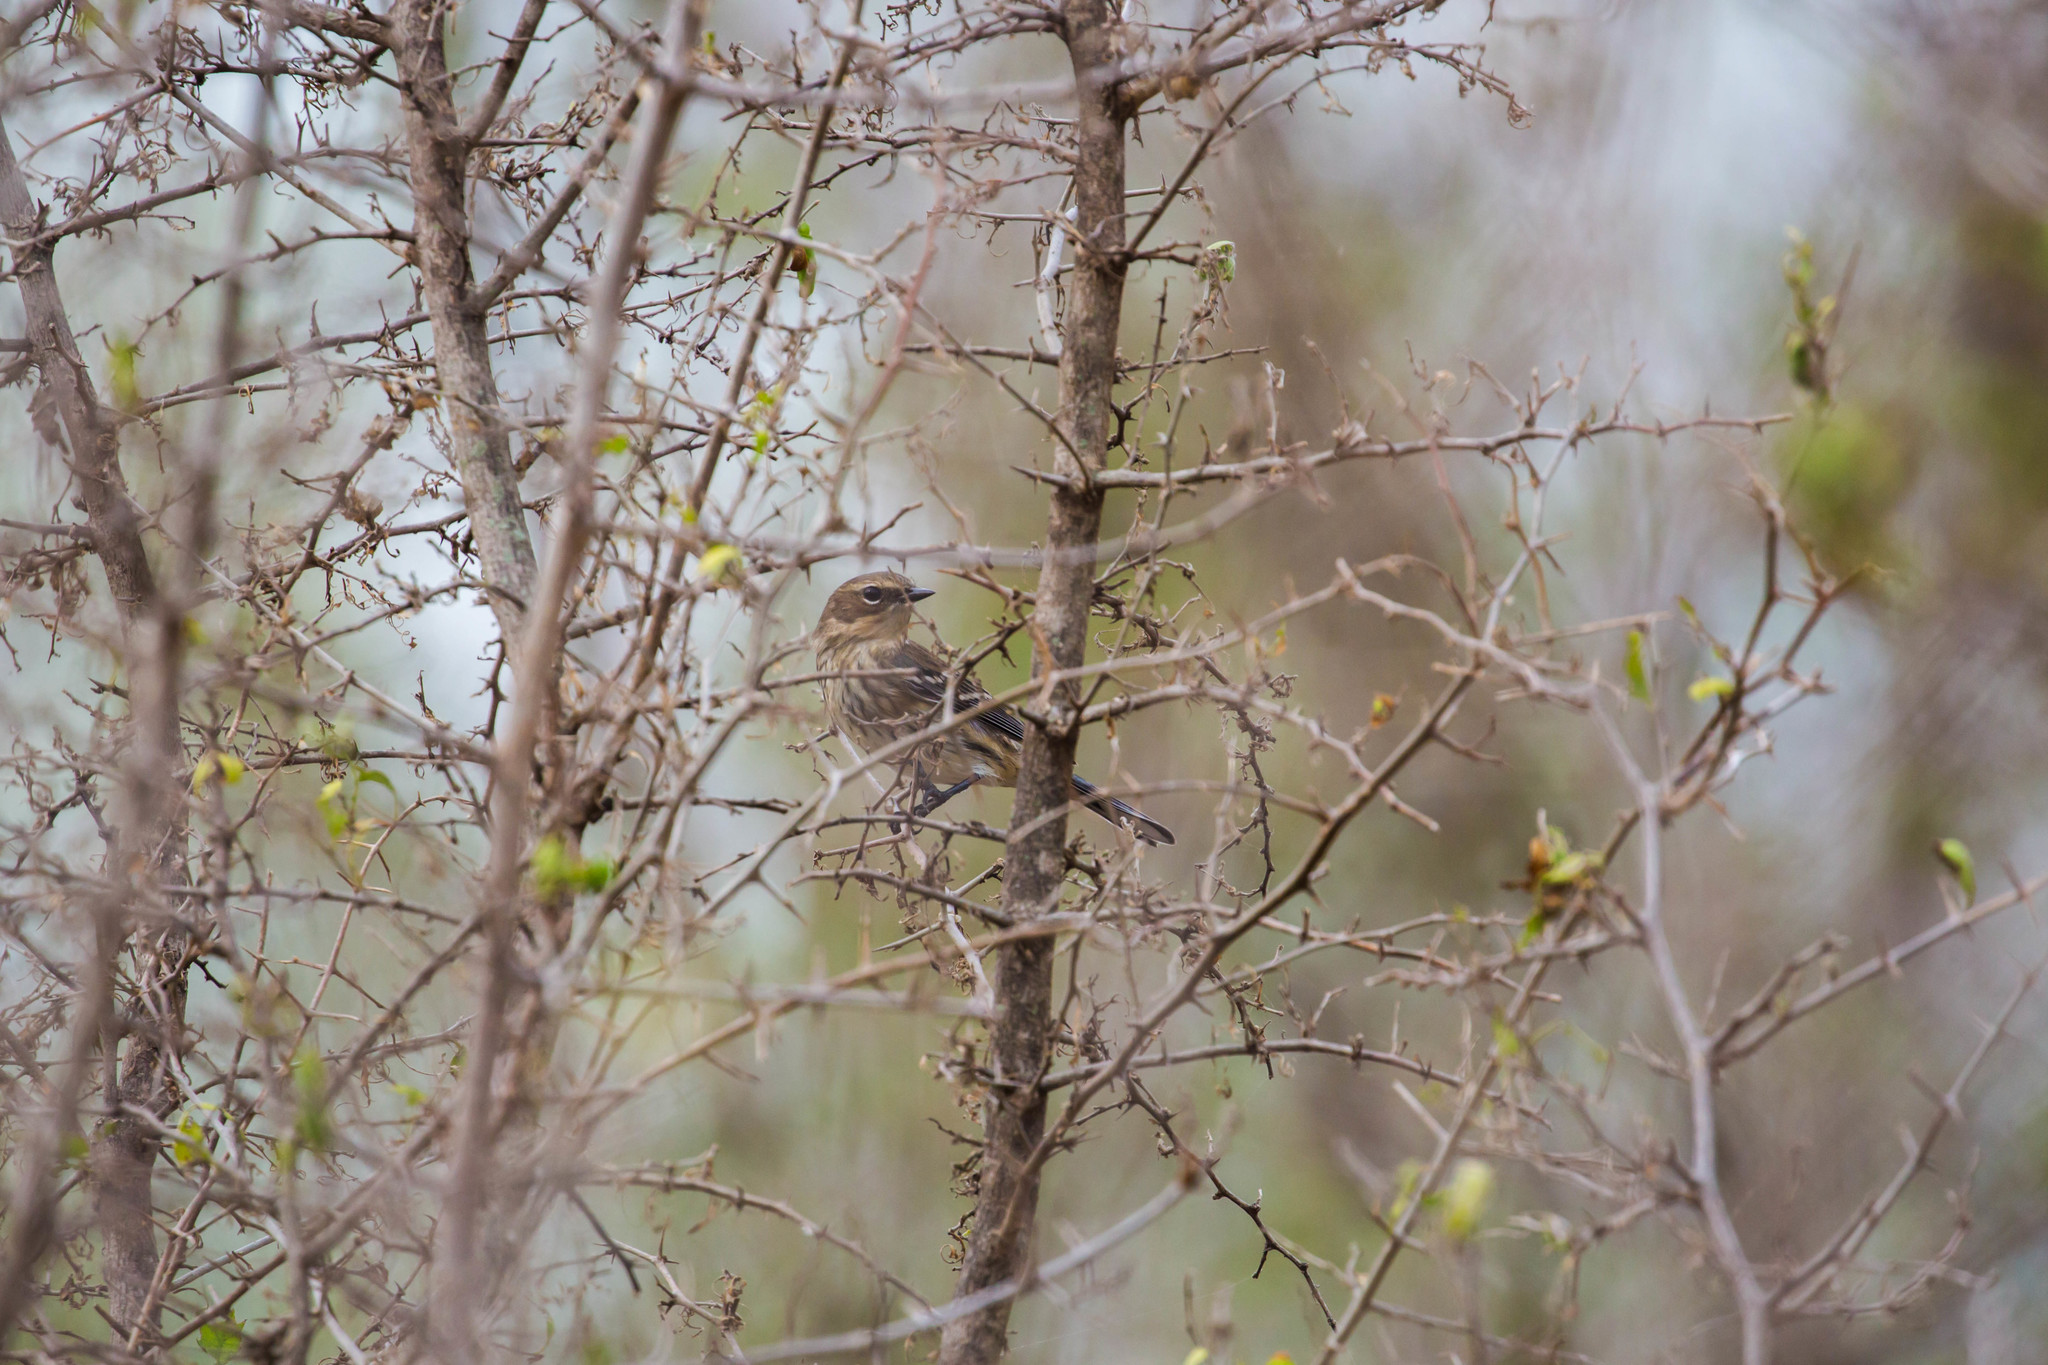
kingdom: Animalia
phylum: Chordata
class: Aves
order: Passeriformes
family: Parulidae
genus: Setophaga
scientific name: Setophaga coronata
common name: Myrtle warbler
